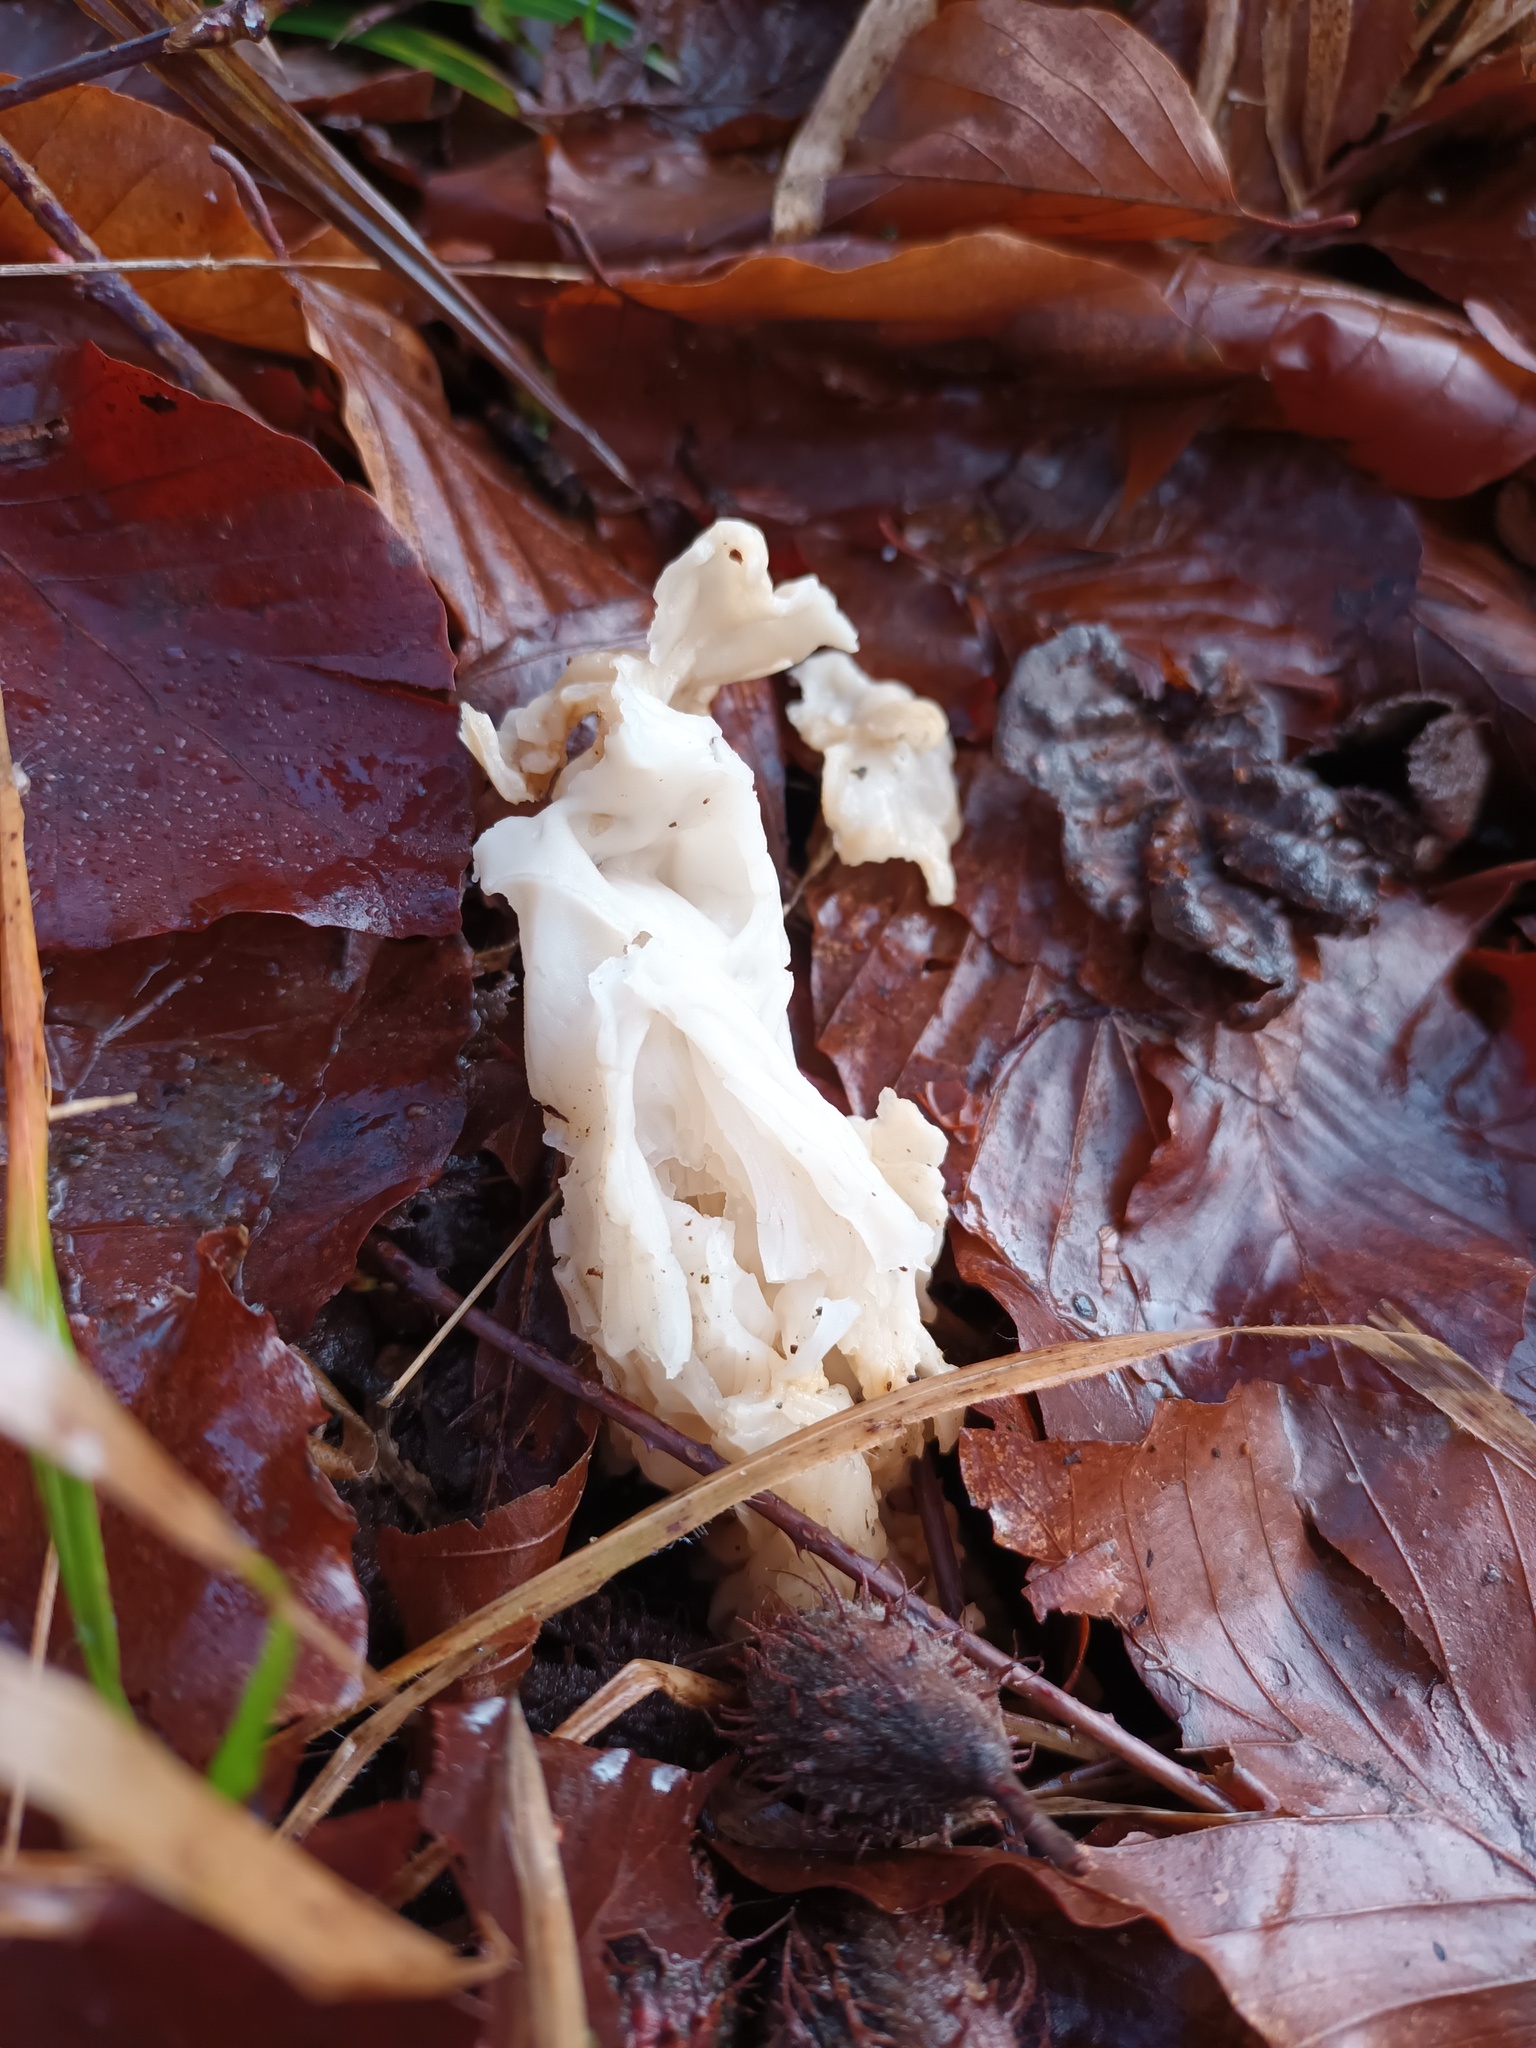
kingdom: Fungi
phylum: Ascomycota
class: Pezizomycetes
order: Pezizales
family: Helvellaceae
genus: Helvella
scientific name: Helvella crispa
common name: White saddle
